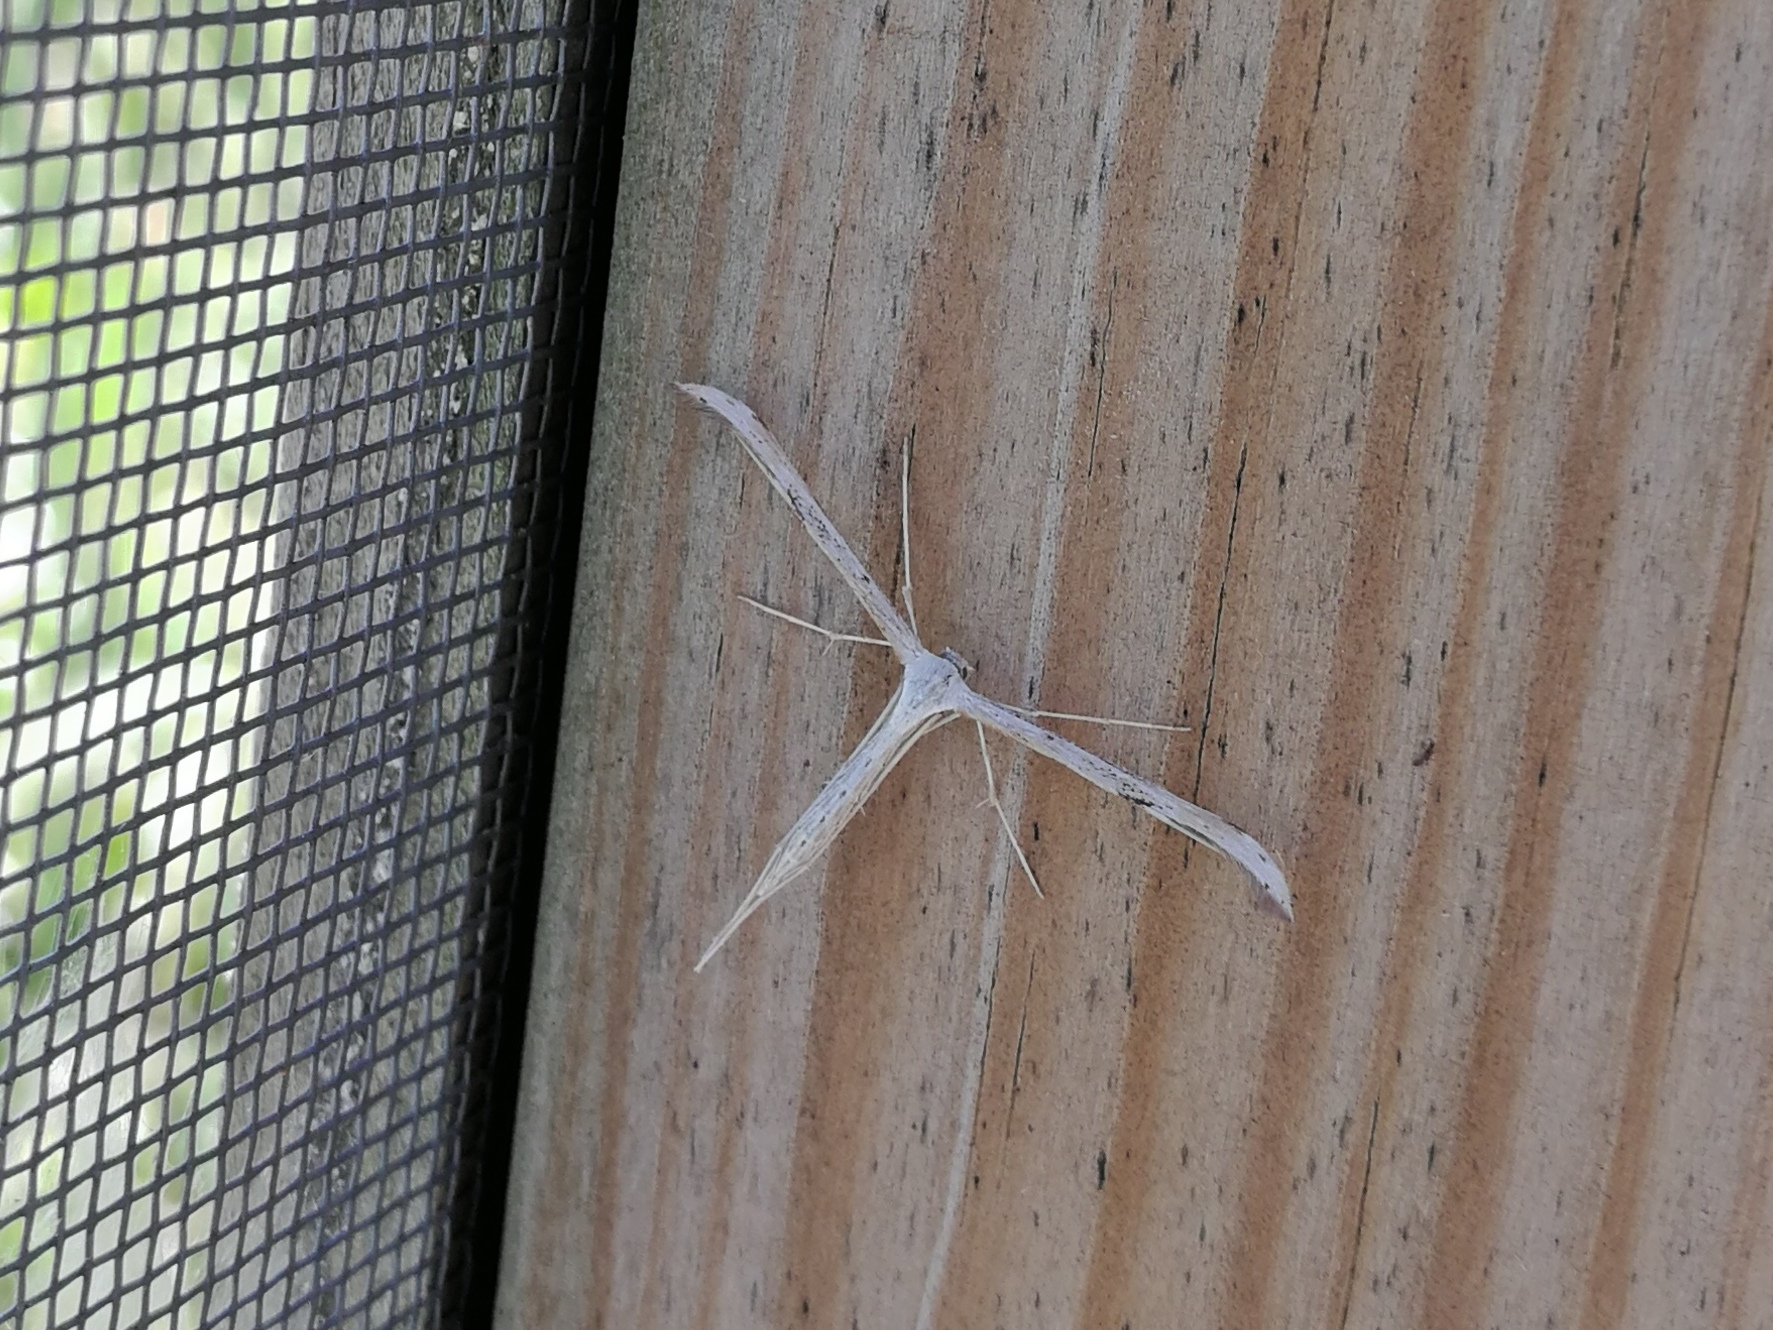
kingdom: Animalia
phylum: Arthropoda
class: Insecta
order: Lepidoptera
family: Pterophoridae
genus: Emmelina
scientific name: Emmelina monodactyla
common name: Common plume
